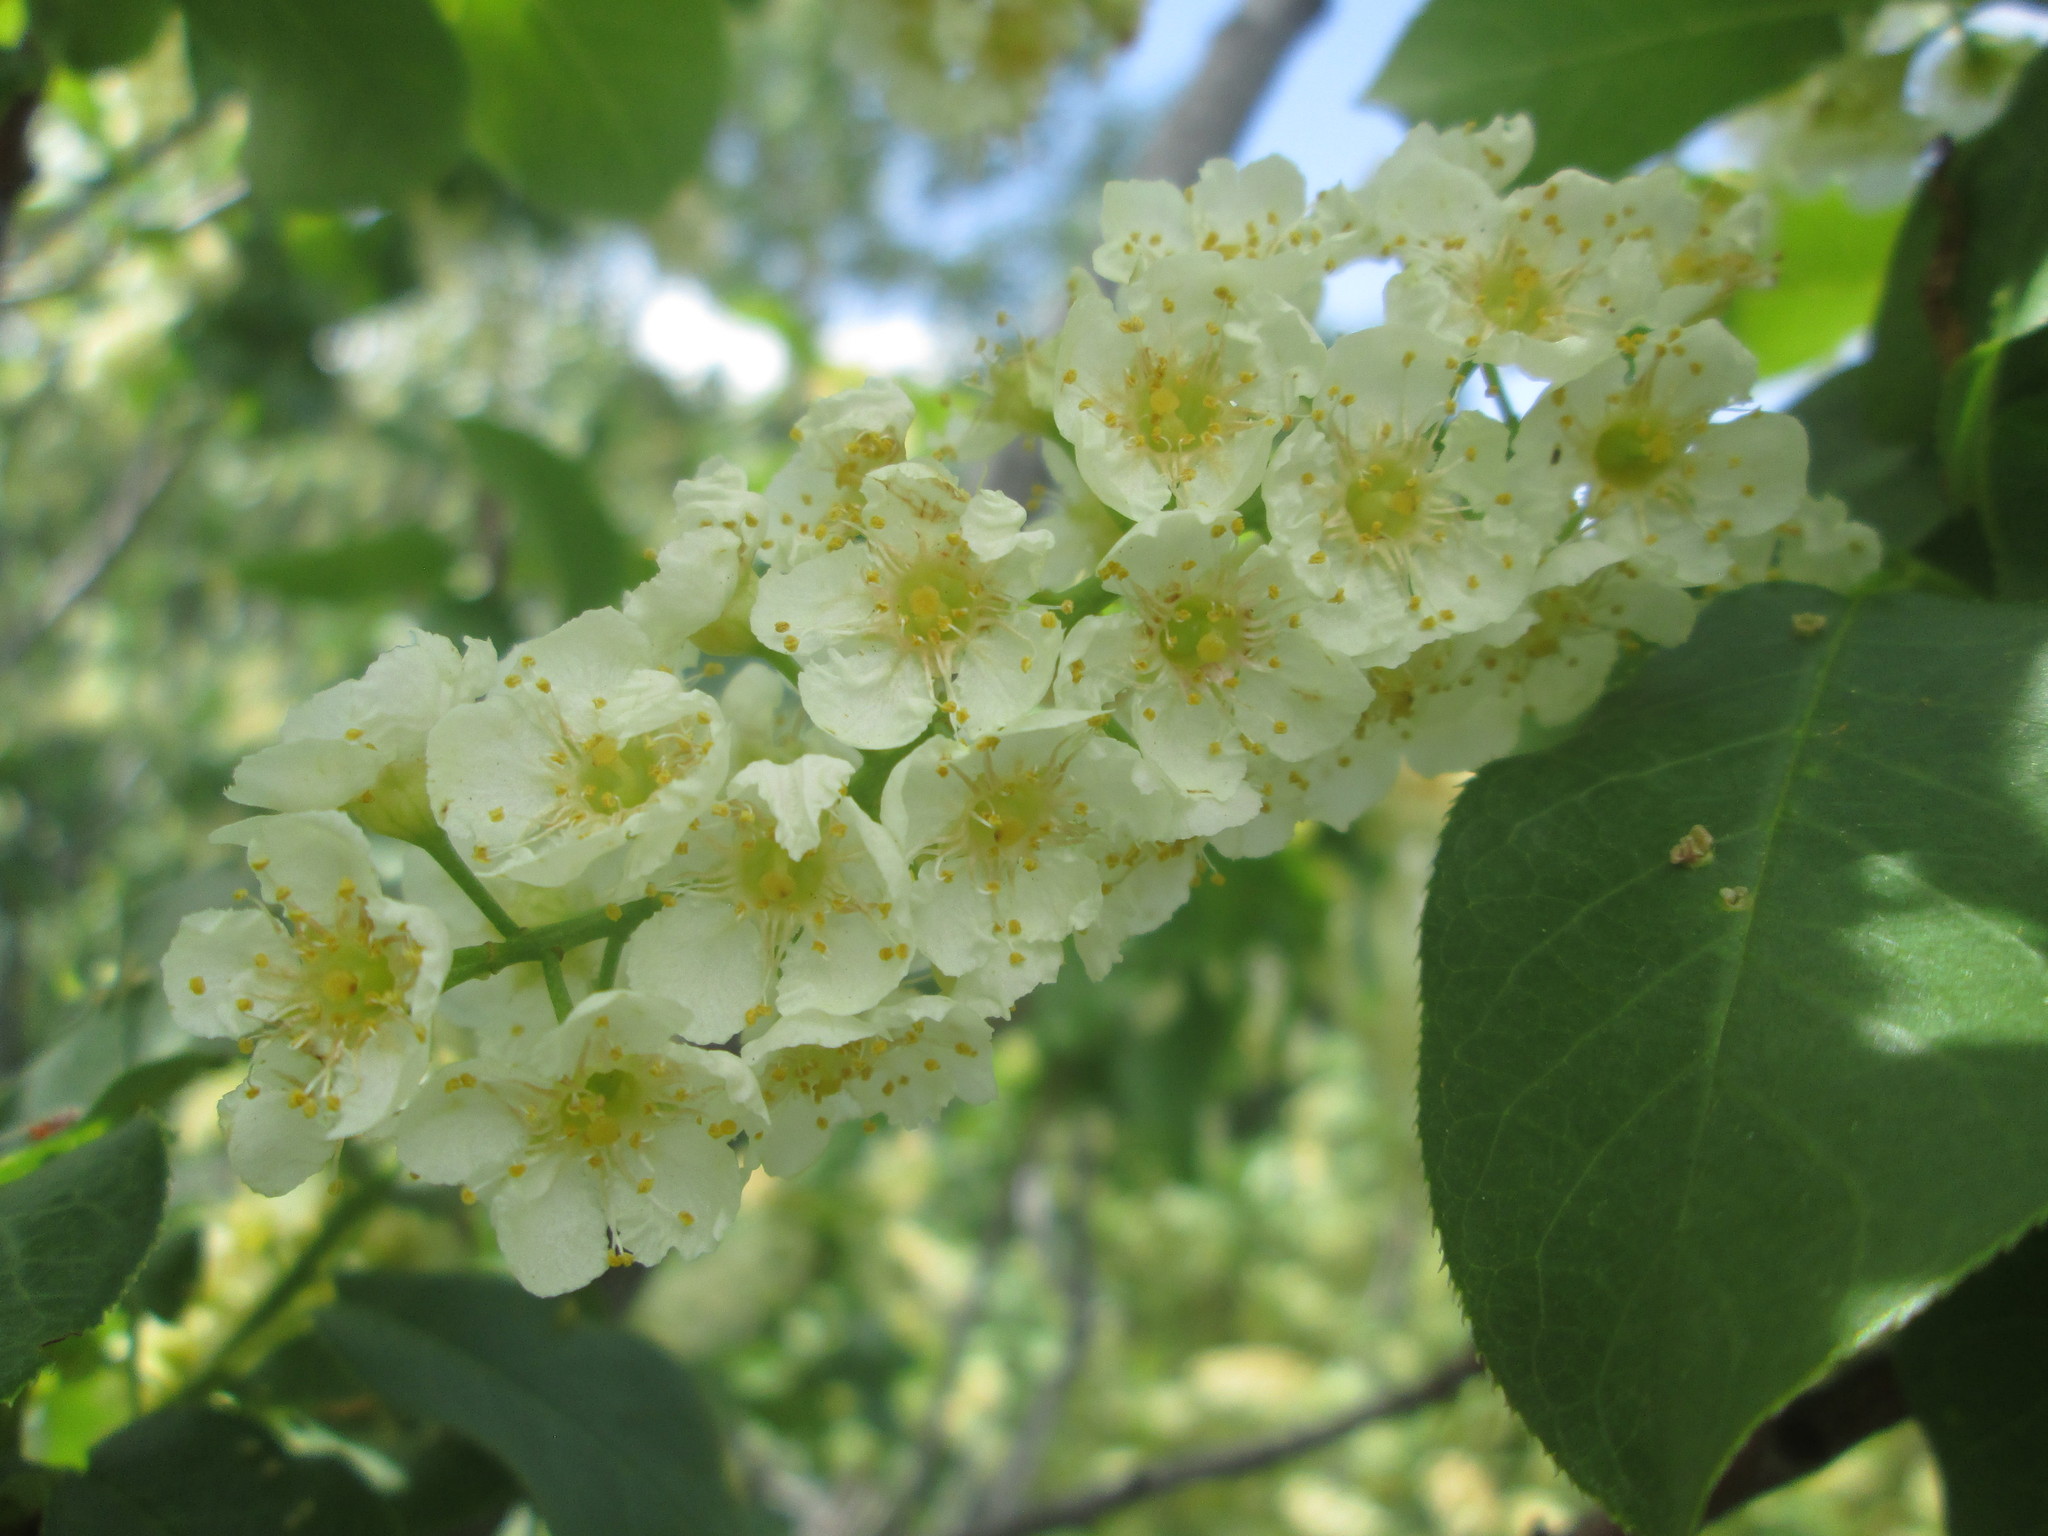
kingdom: Plantae
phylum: Tracheophyta
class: Magnoliopsida
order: Rosales
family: Rosaceae
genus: Prunus
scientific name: Prunus virginiana
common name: Chokecherry
